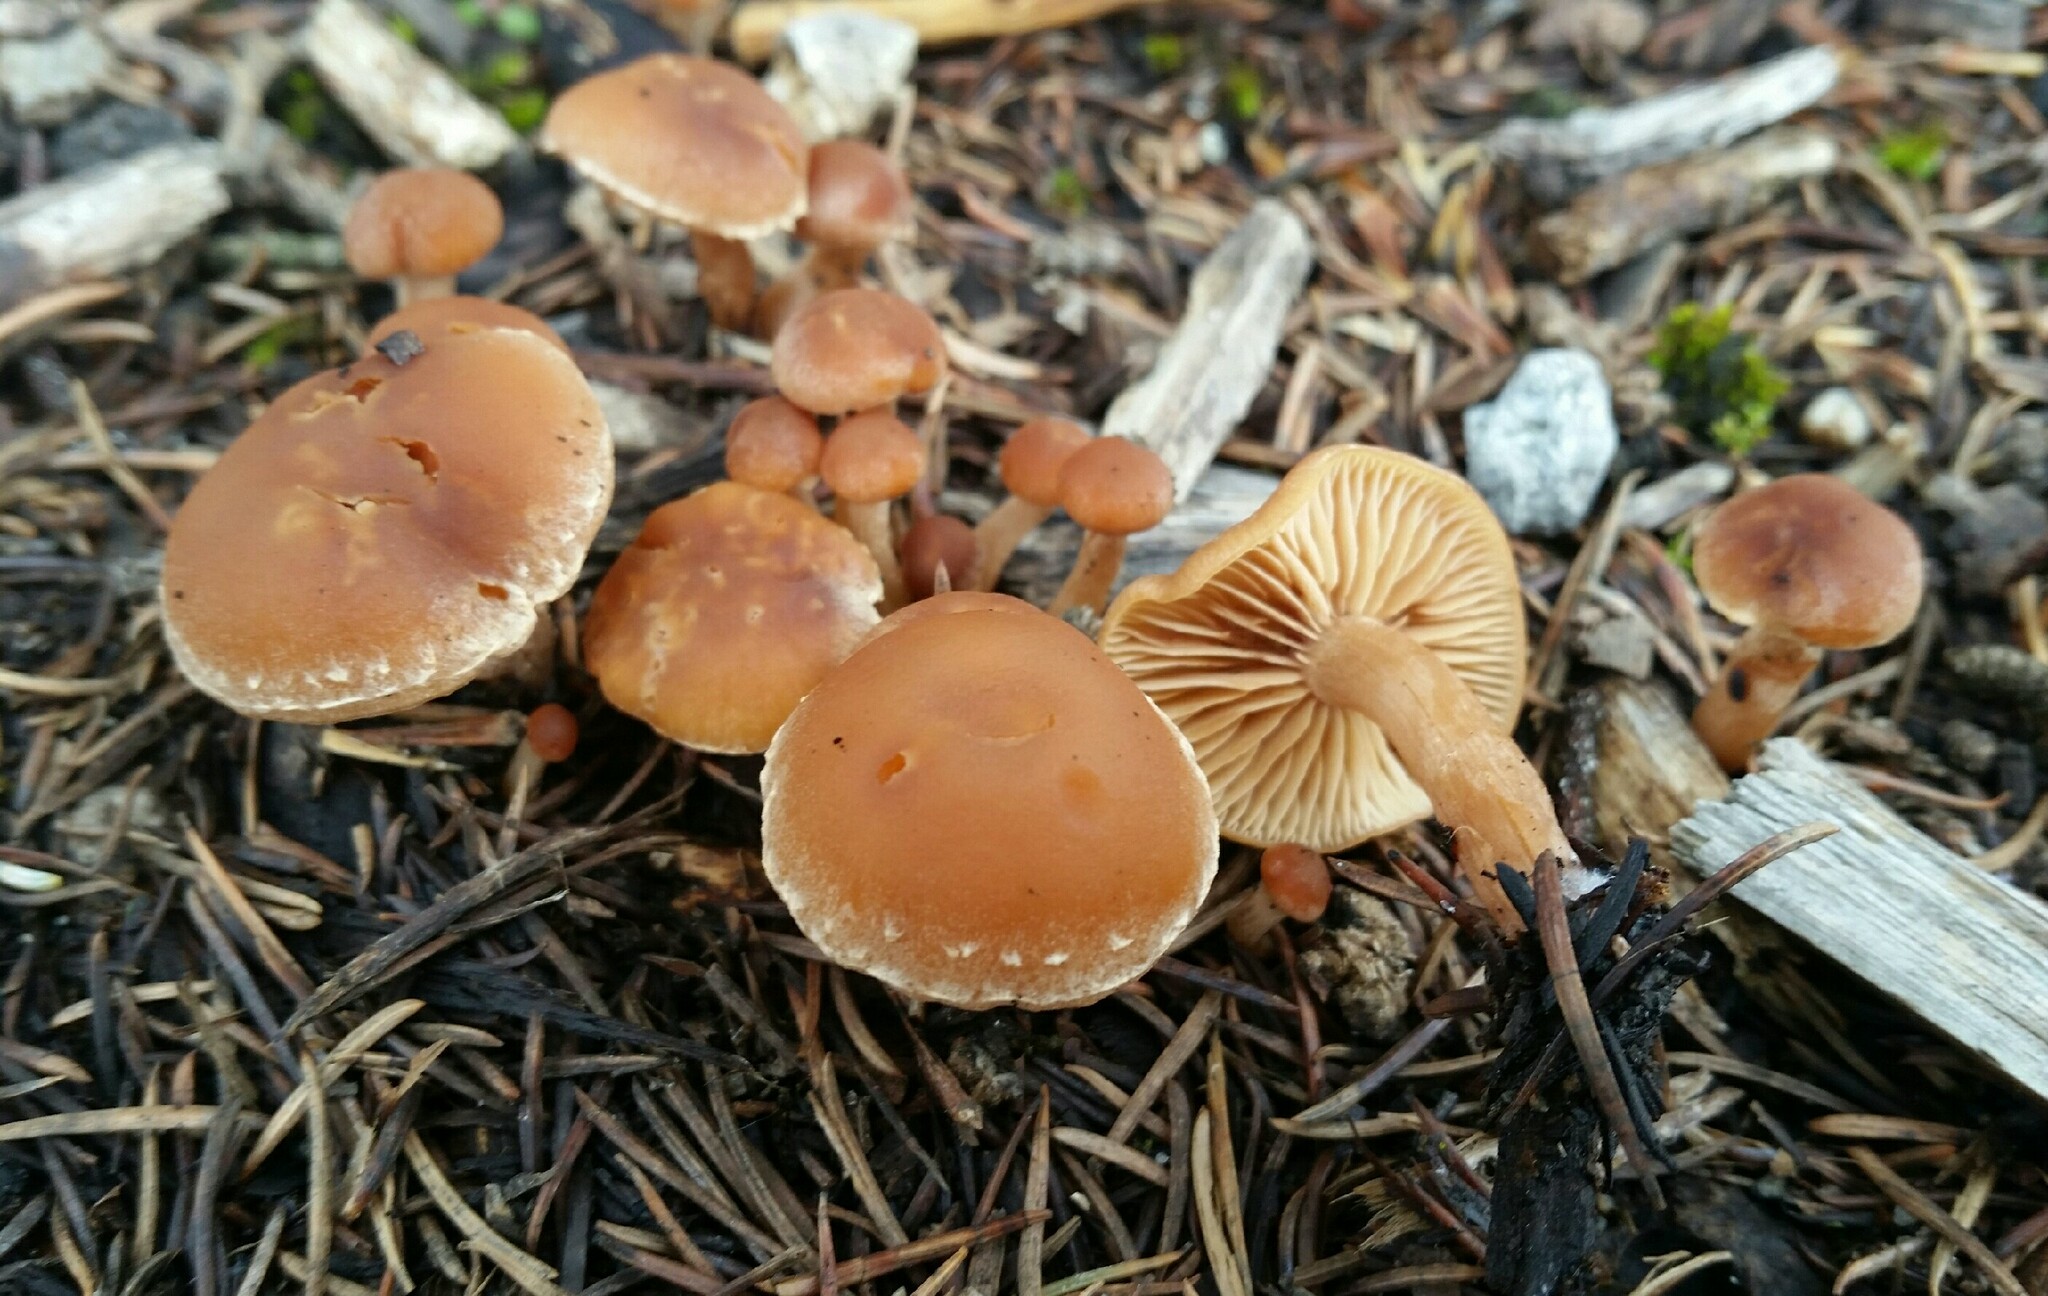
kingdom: Fungi
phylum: Basidiomycota
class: Agaricomycetes
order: Agaricales
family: Tubariaceae
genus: Tubaria
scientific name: Tubaria furfuracea
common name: Scurfy twiglet
